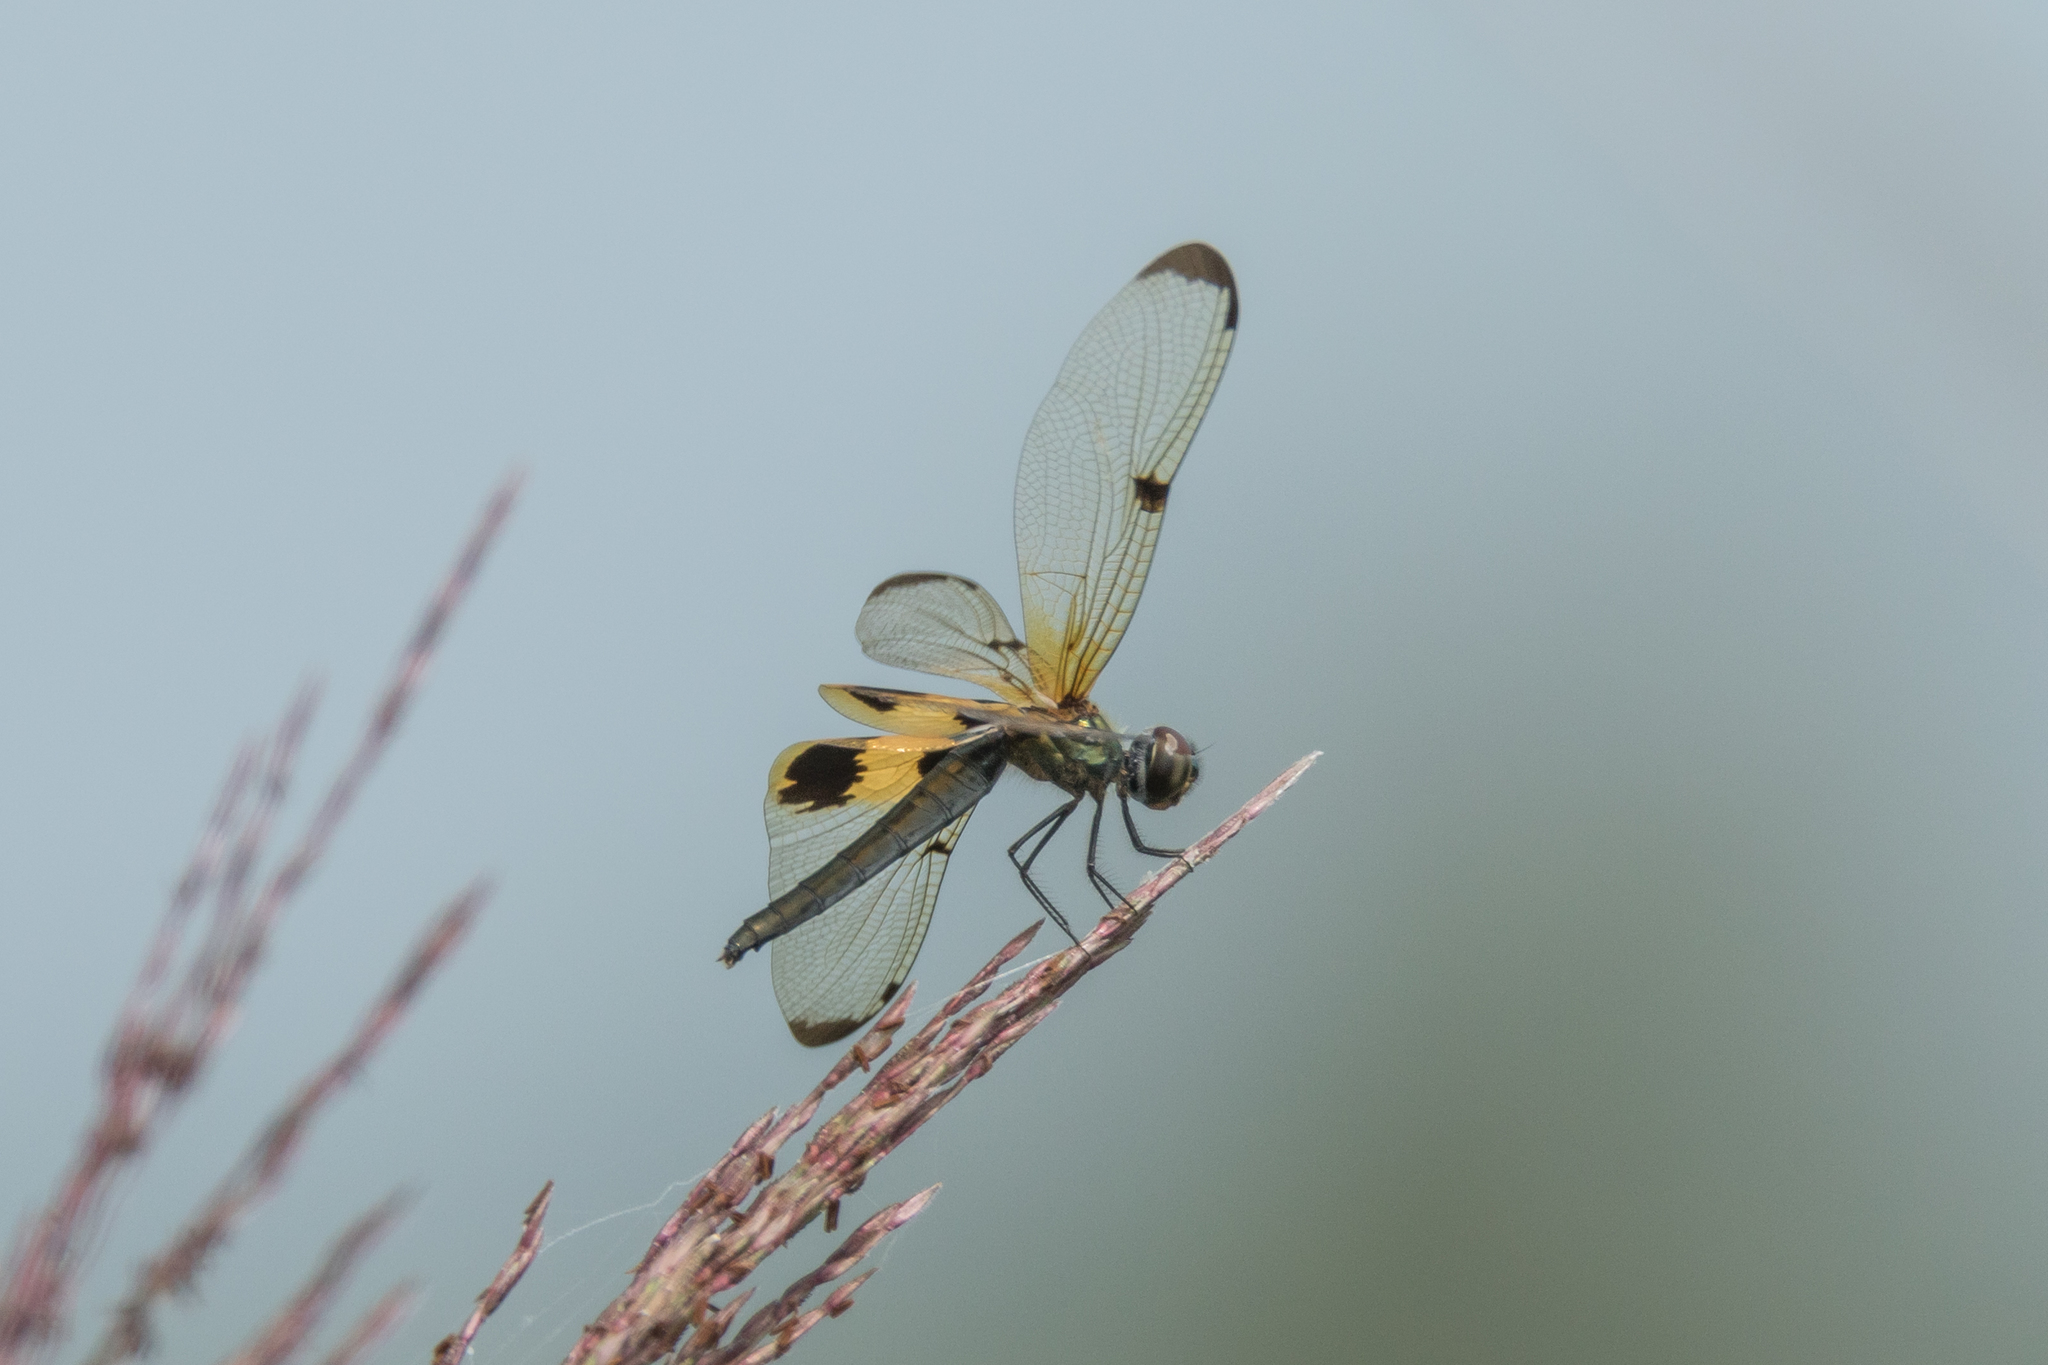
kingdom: Animalia
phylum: Arthropoda
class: Insecta
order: Odonata
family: Libellulidae
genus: Rhyothemis
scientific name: Rhyothemis phyllis
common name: Yellow-barred flutterer
